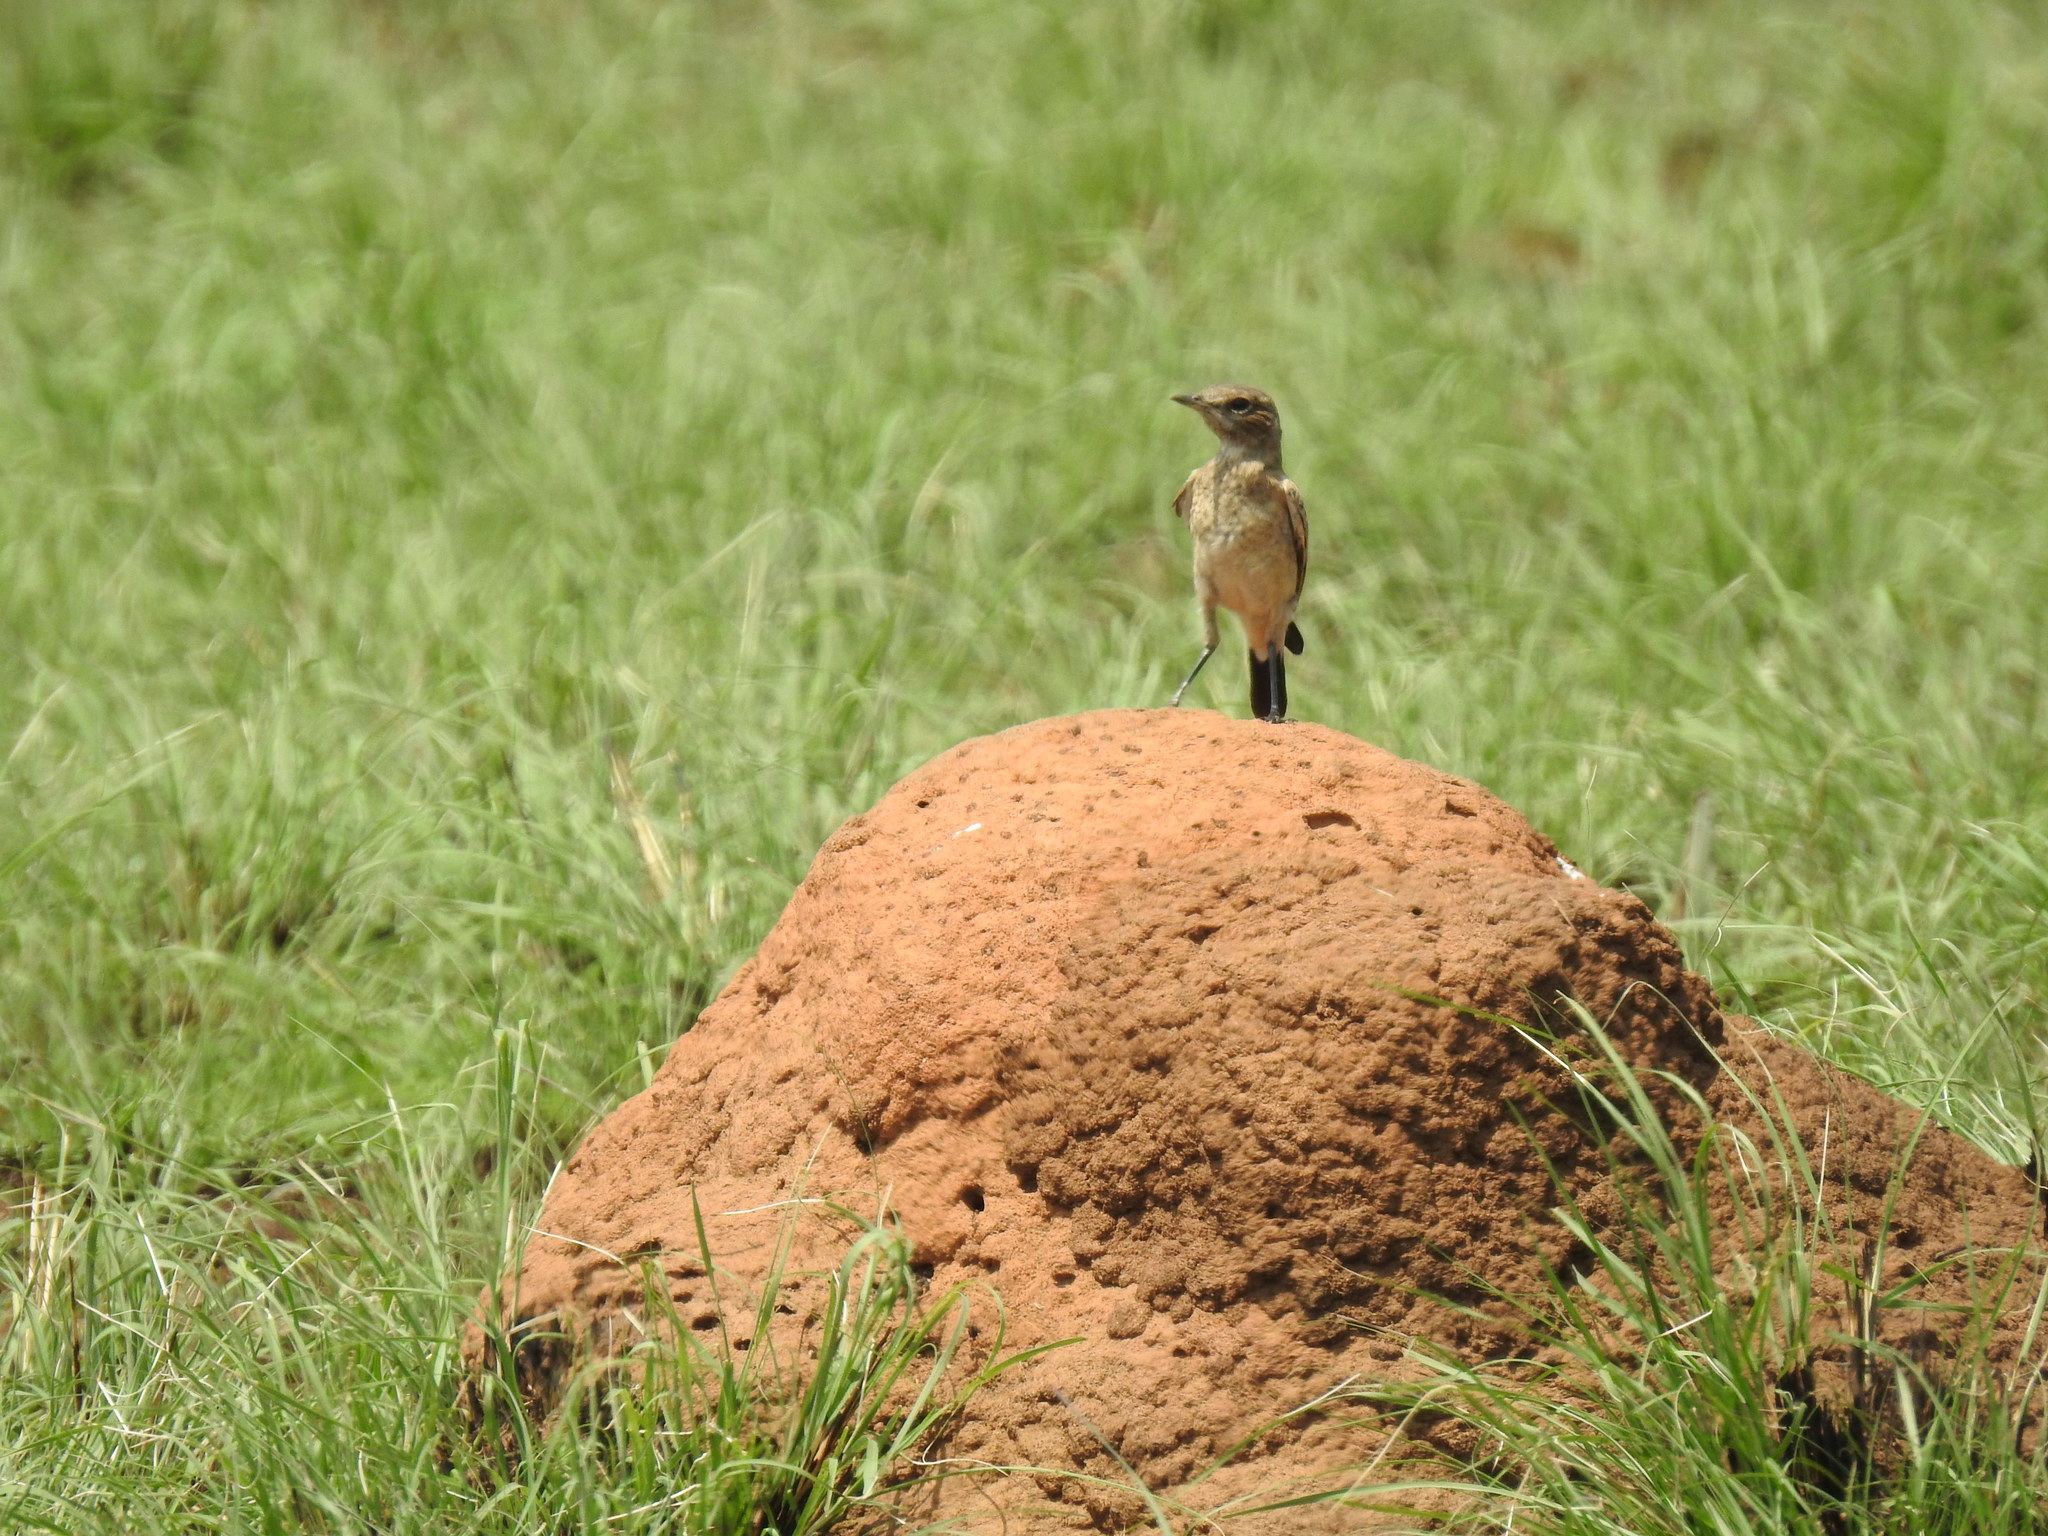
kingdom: Animalia
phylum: Chordata
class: Aves
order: Passeriformes
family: Muscicapidae
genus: Oenanthe
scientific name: Oenanthe pileata
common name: Capped wheatear
